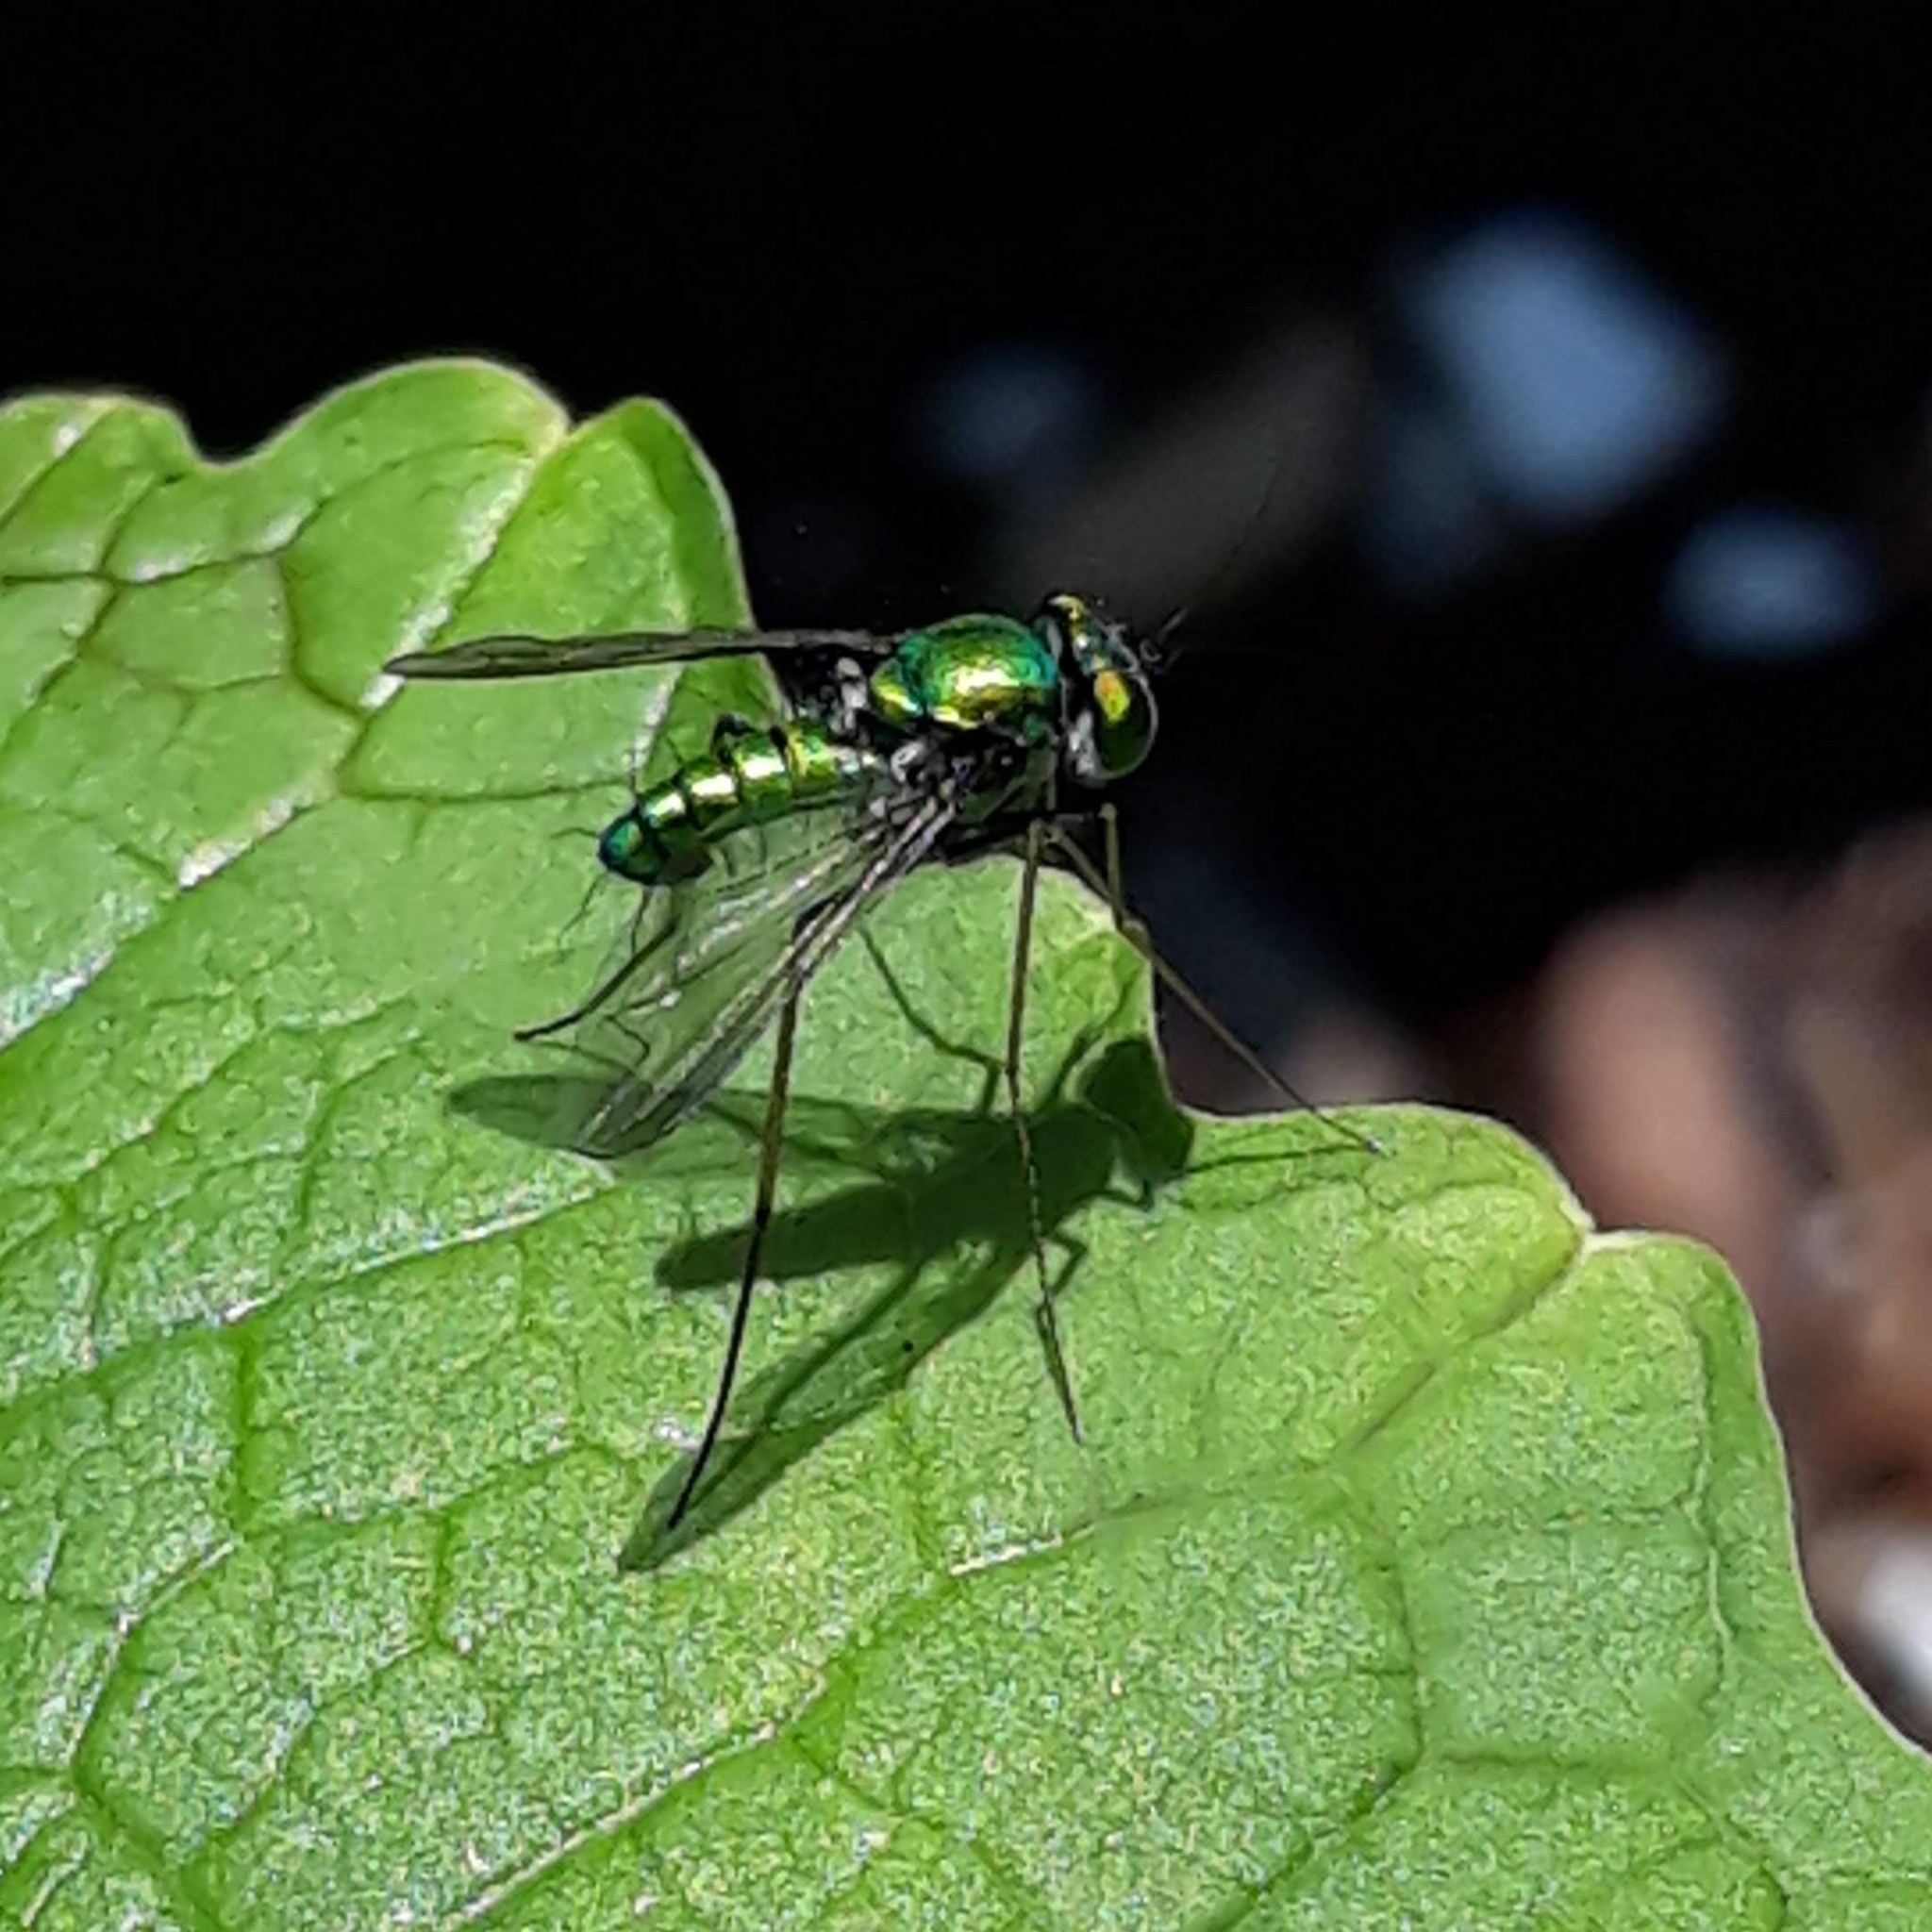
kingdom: Animalia
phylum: Arthropoda
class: Insecta
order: Diptera
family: Dolichopodidae
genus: Condylostylus
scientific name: Condylostylus
